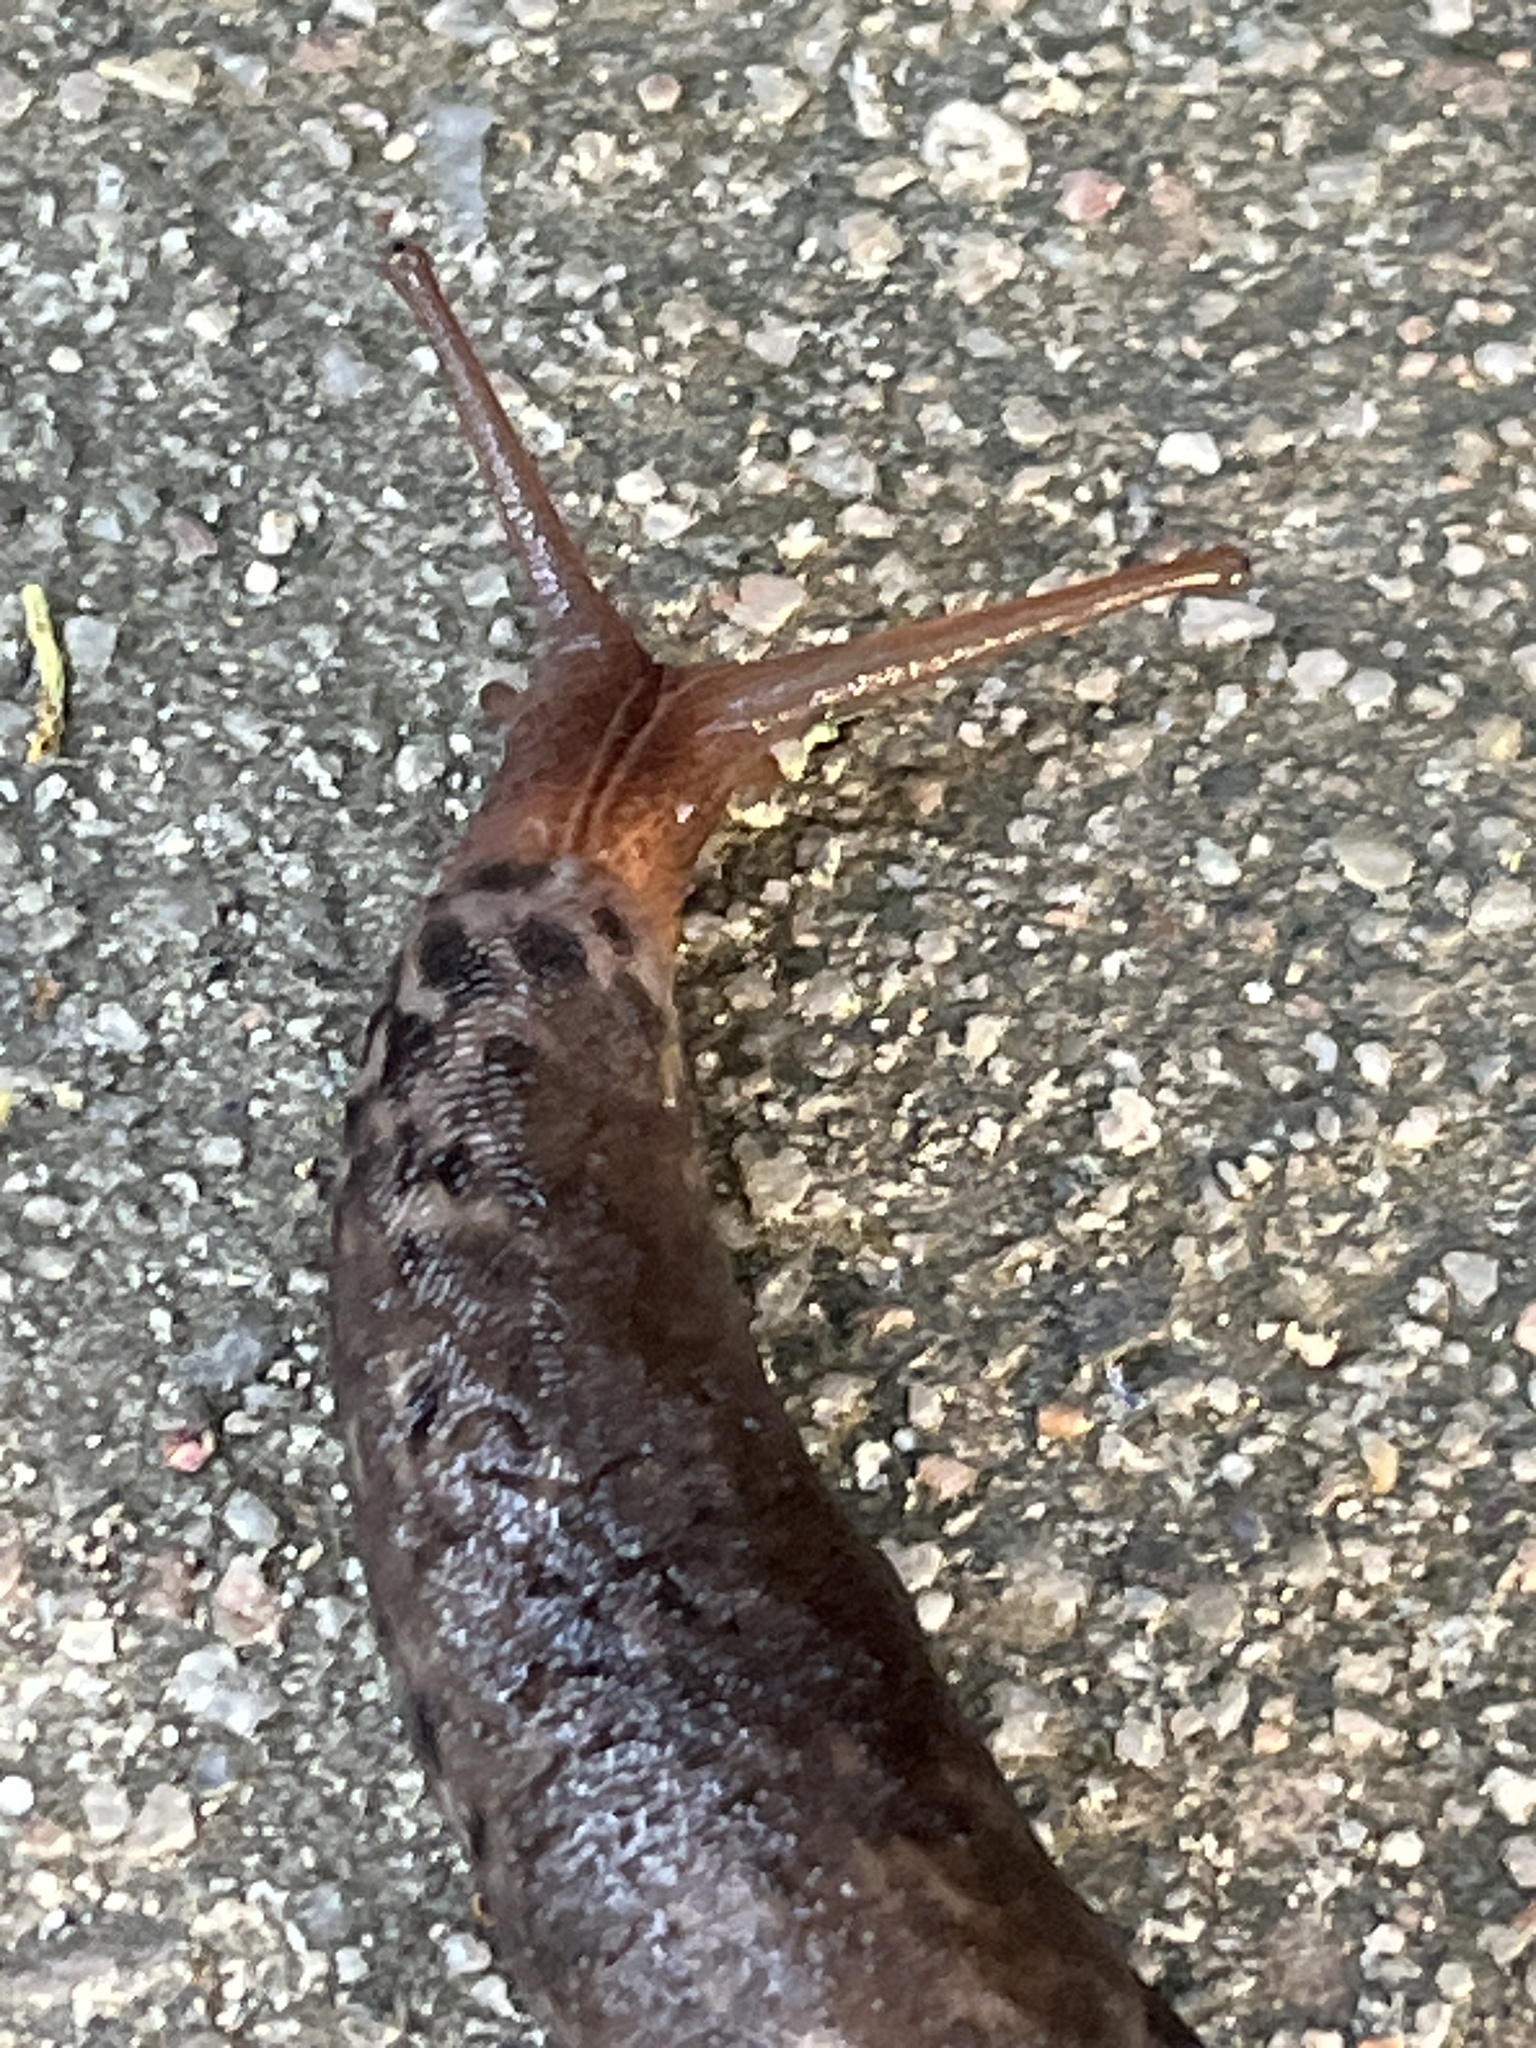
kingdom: Animalia
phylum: Mollusca
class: Gastropoda
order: Stylommatophora
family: Limacidae
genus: Limax
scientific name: Limax maximus
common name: Great grey slug
